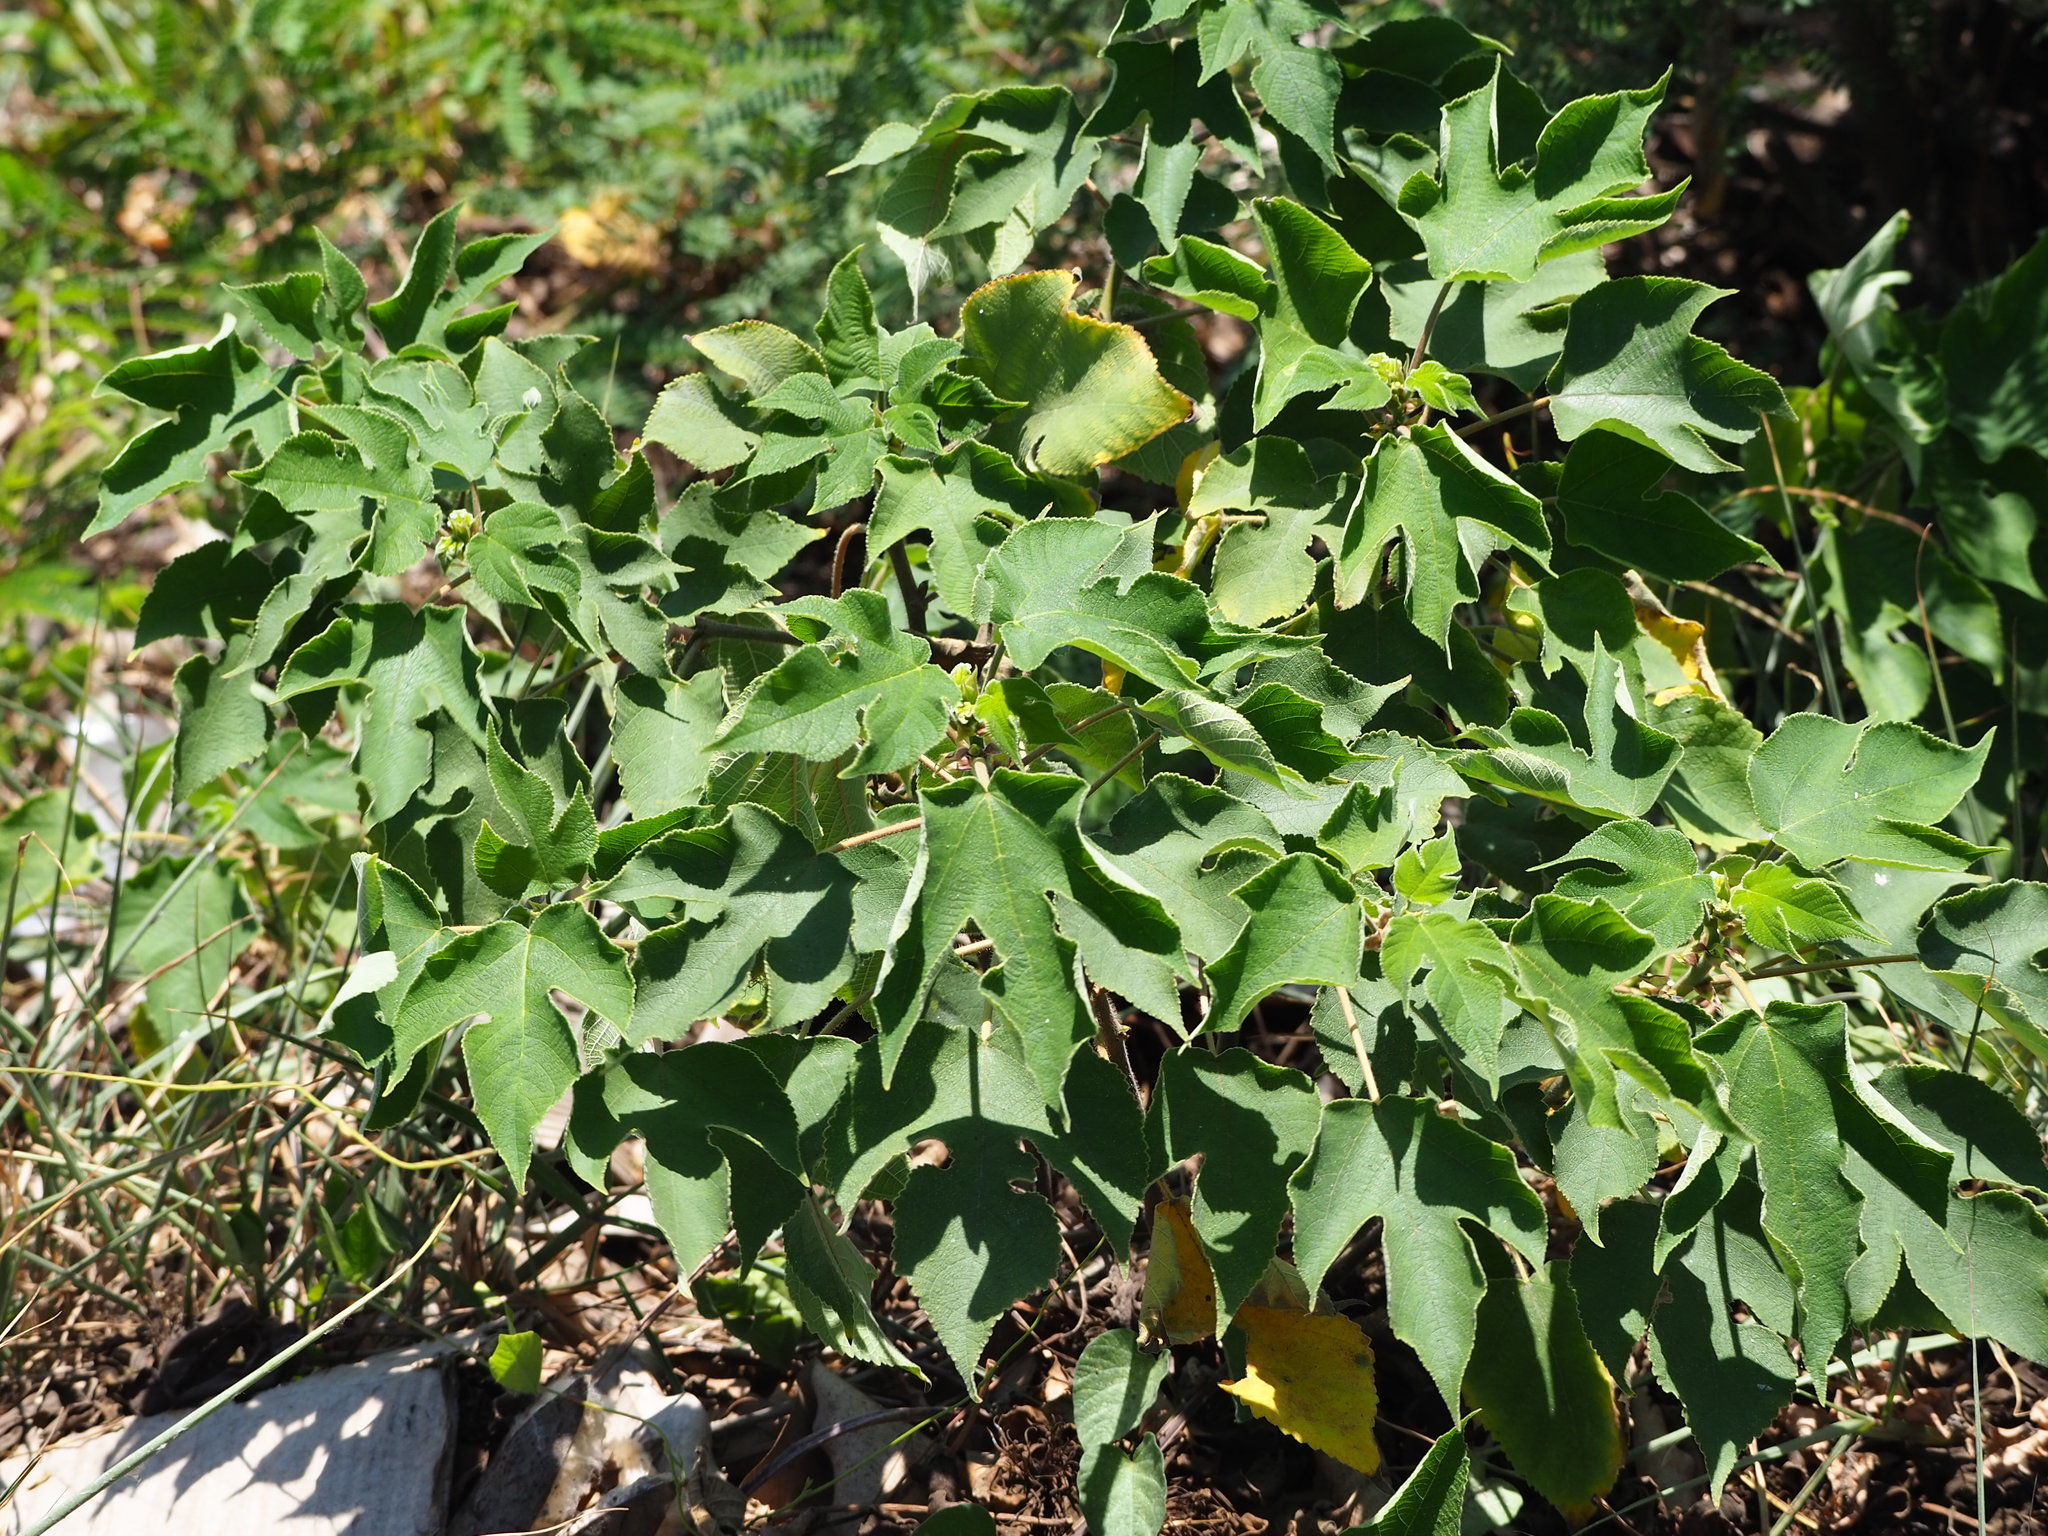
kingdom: Plantae
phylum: Tracheophyta
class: Magnoliopsida
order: Rosales
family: Moraceae
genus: Broussonetia
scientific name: Broussonetia papyrifera
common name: Paper mulberry
